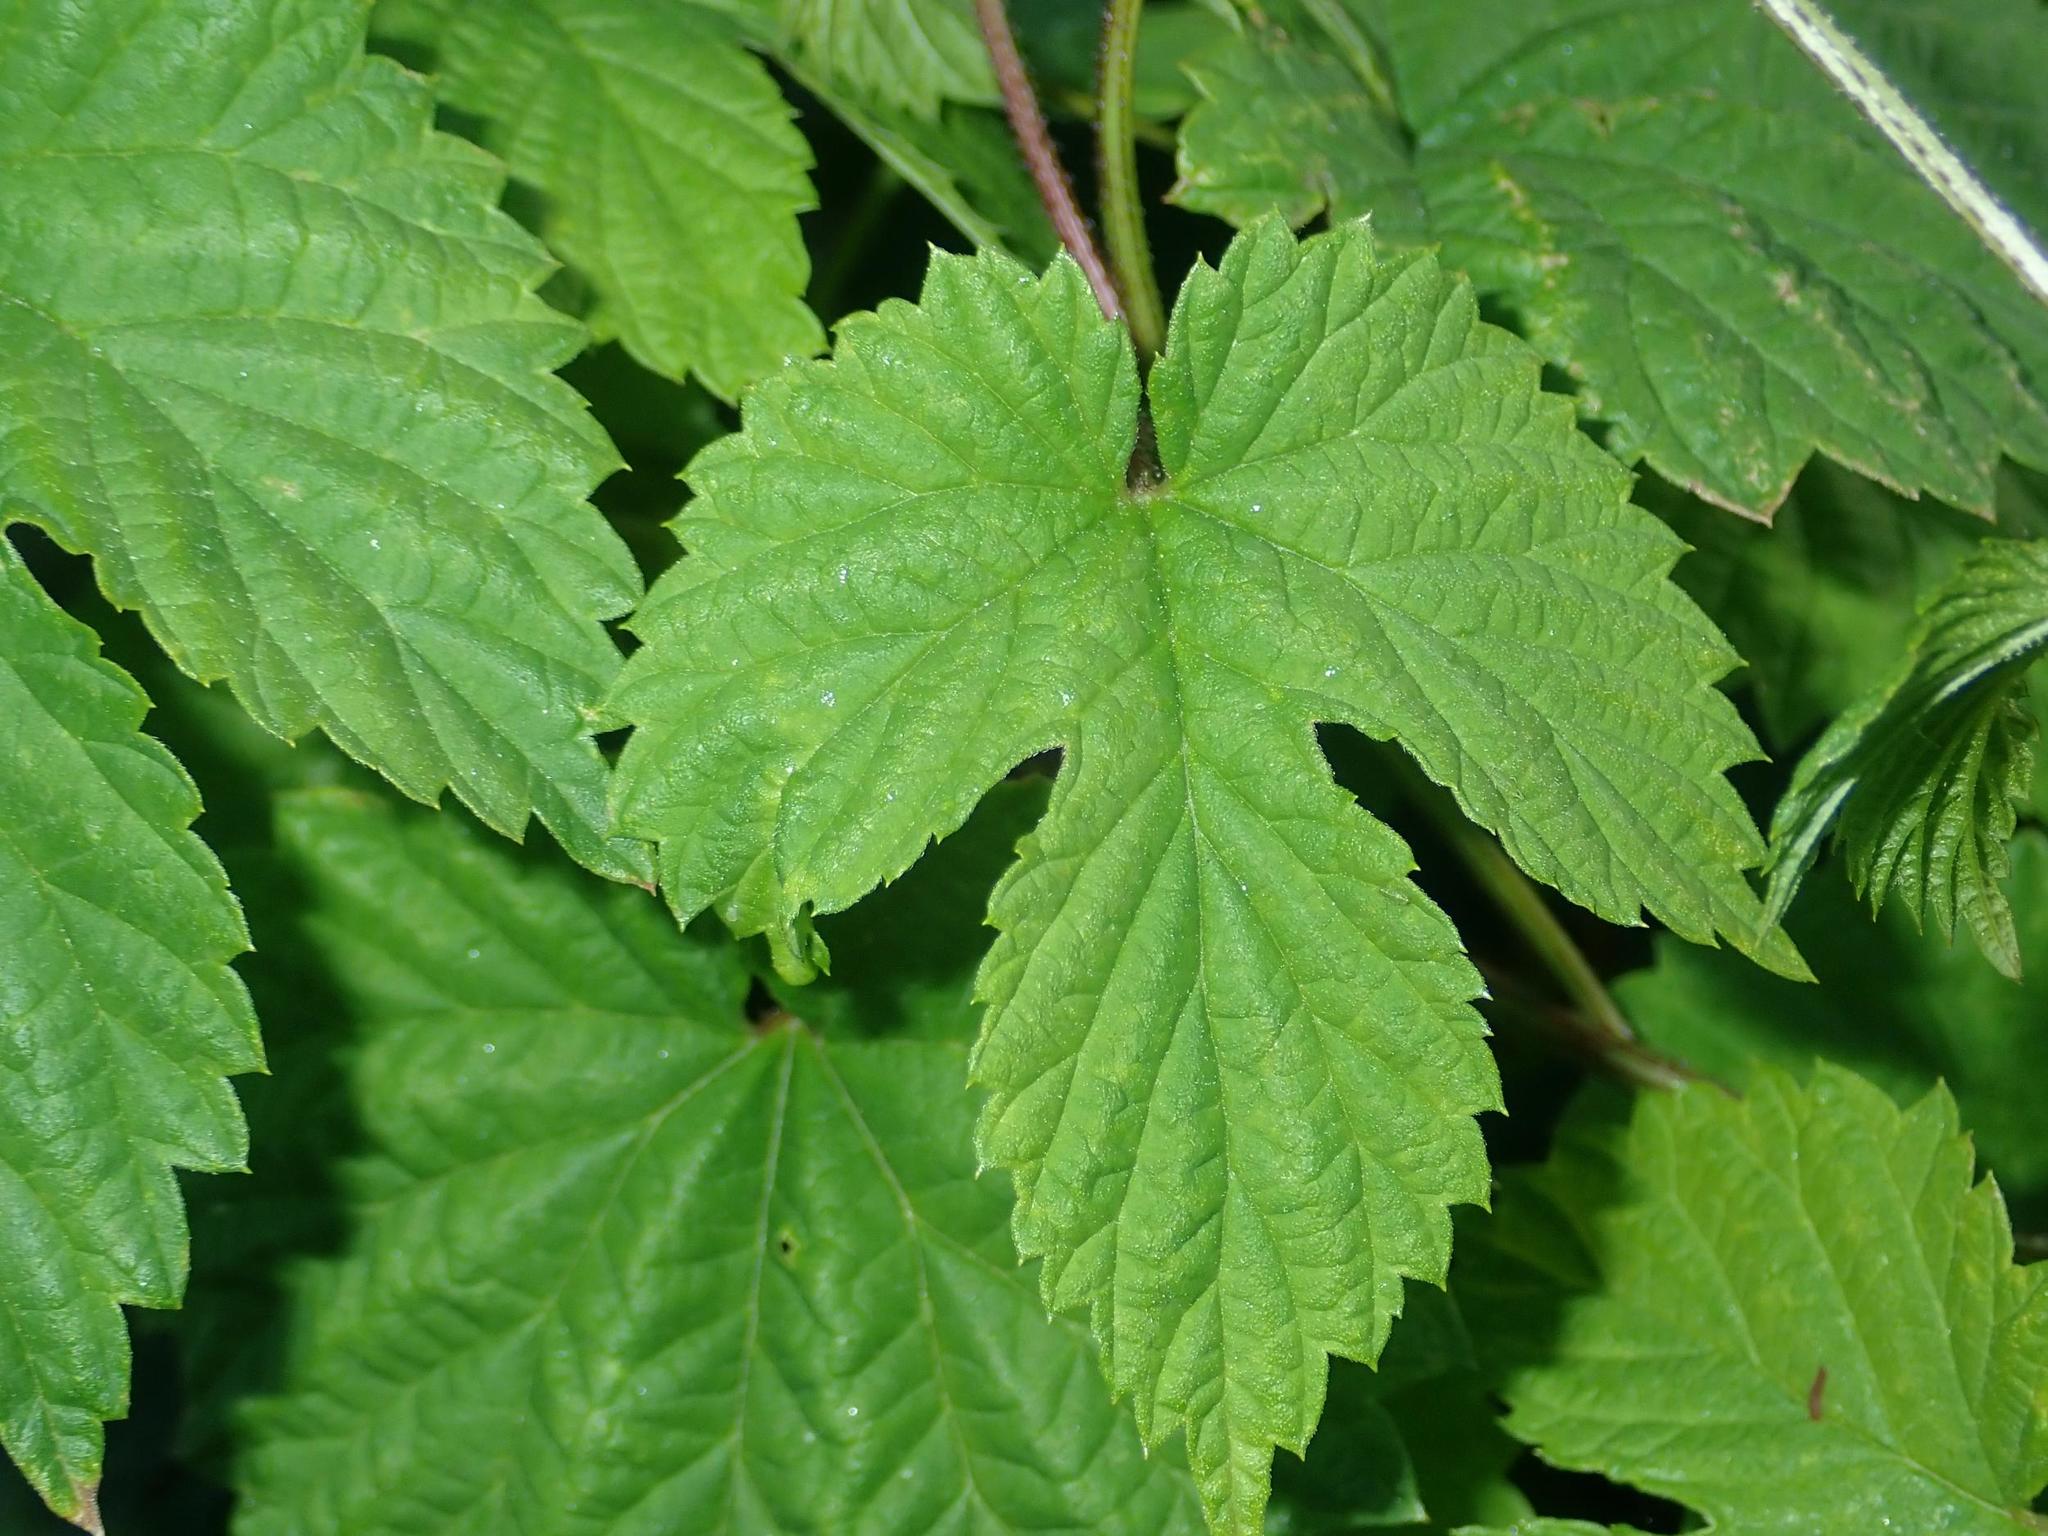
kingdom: Plantae
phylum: Tracheophyta
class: Magnoliopsida
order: Rosales
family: Cannabaceae
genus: Humulus
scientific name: Humulus lupulus
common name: Hop
